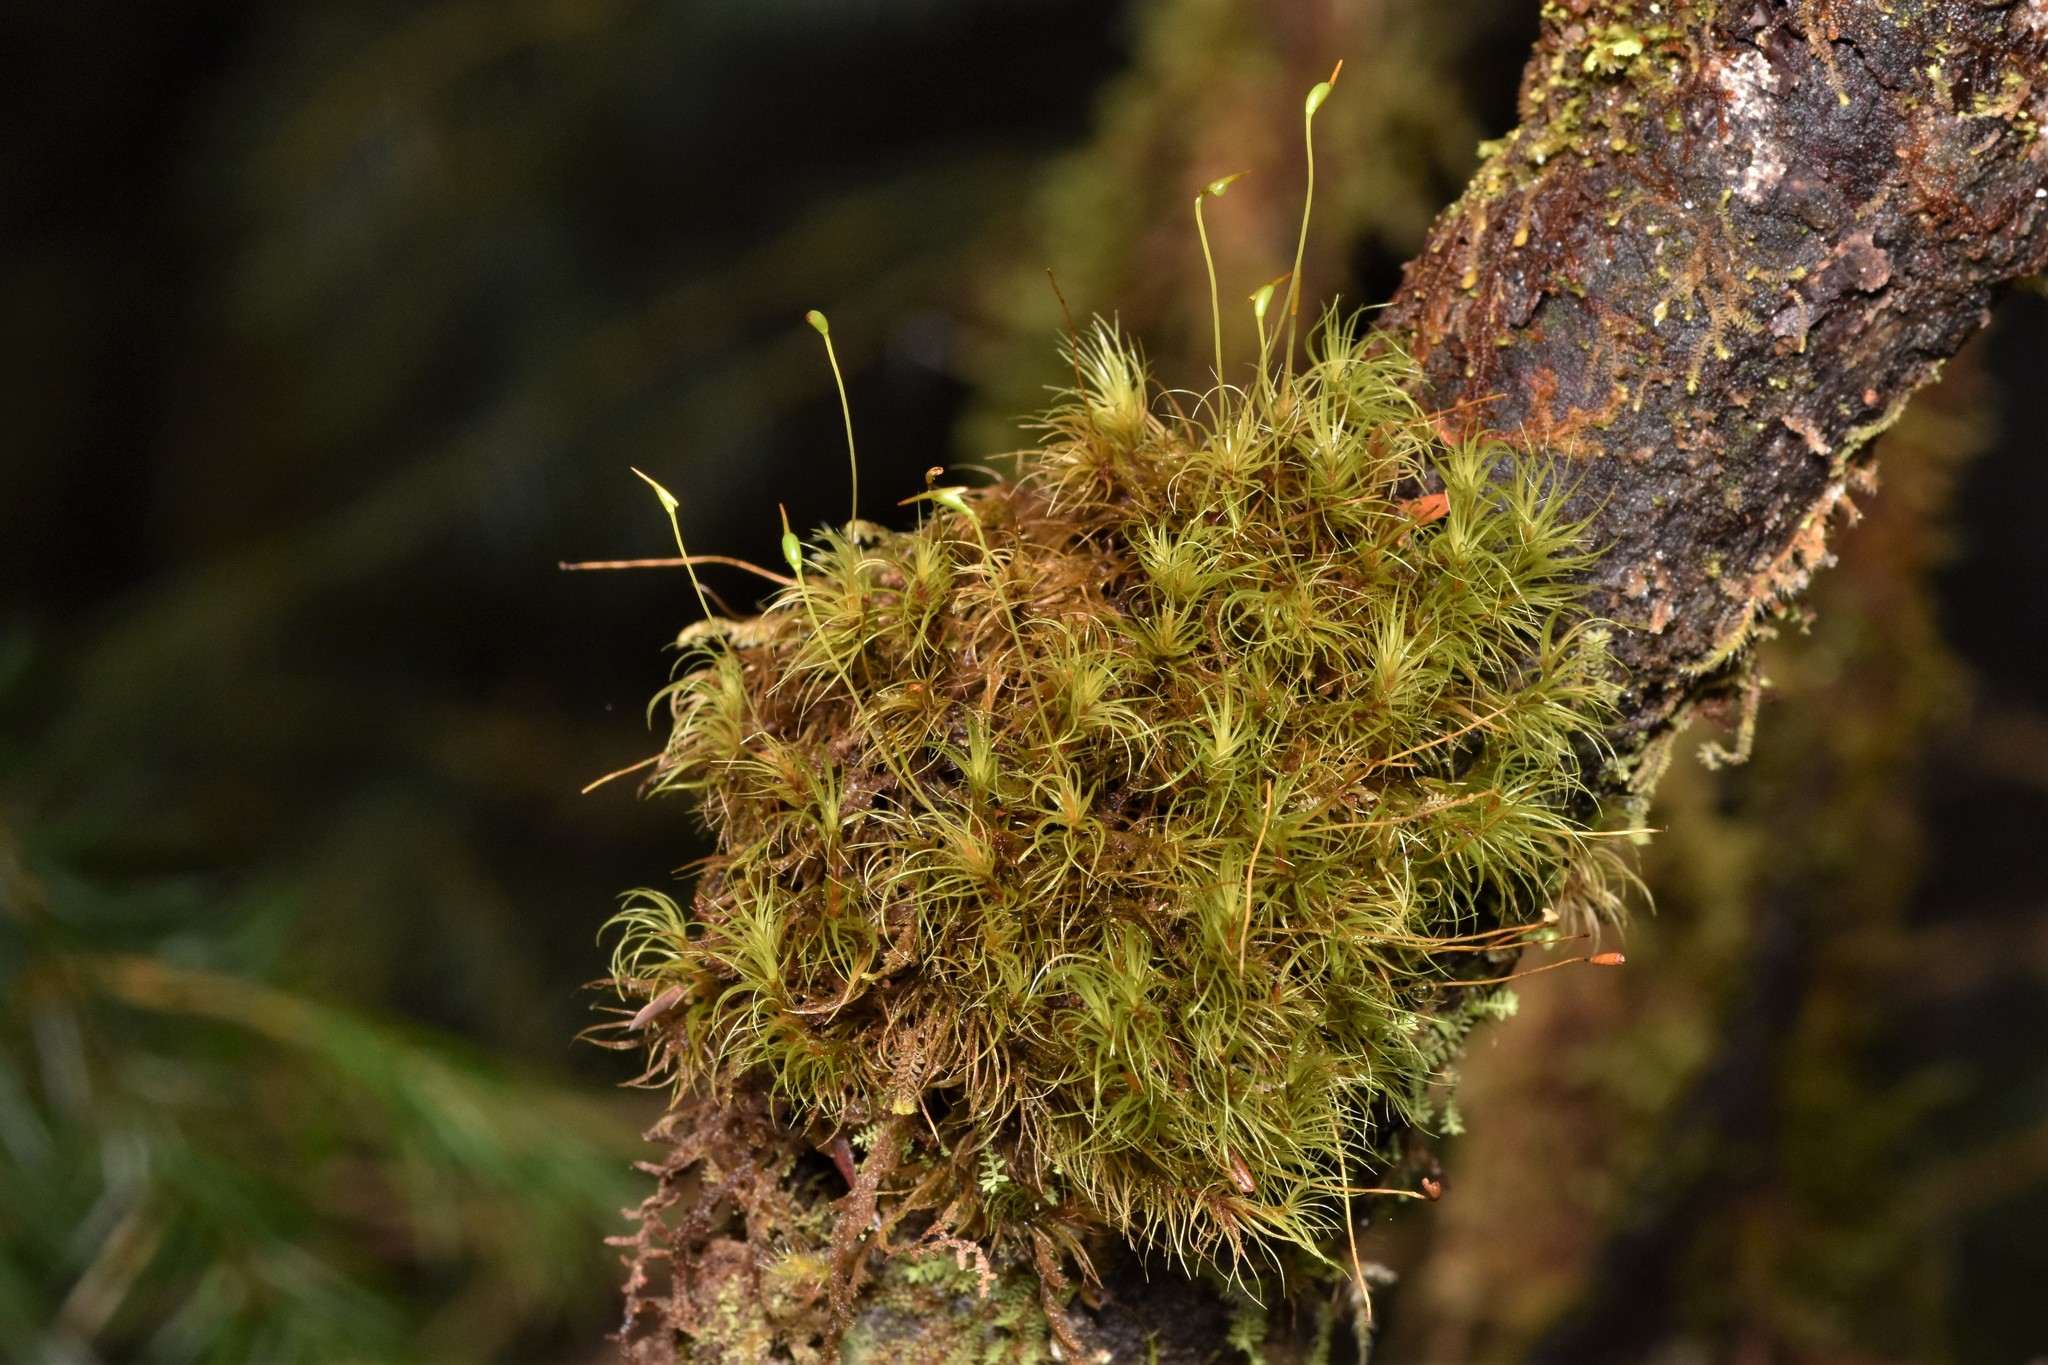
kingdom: Plantae
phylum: Bryophyta
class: Bryopsida
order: Dicranales
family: Dicranaceae
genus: Dicranum
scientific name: Dicranum fuscescens
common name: Curly heron's-bill moss
